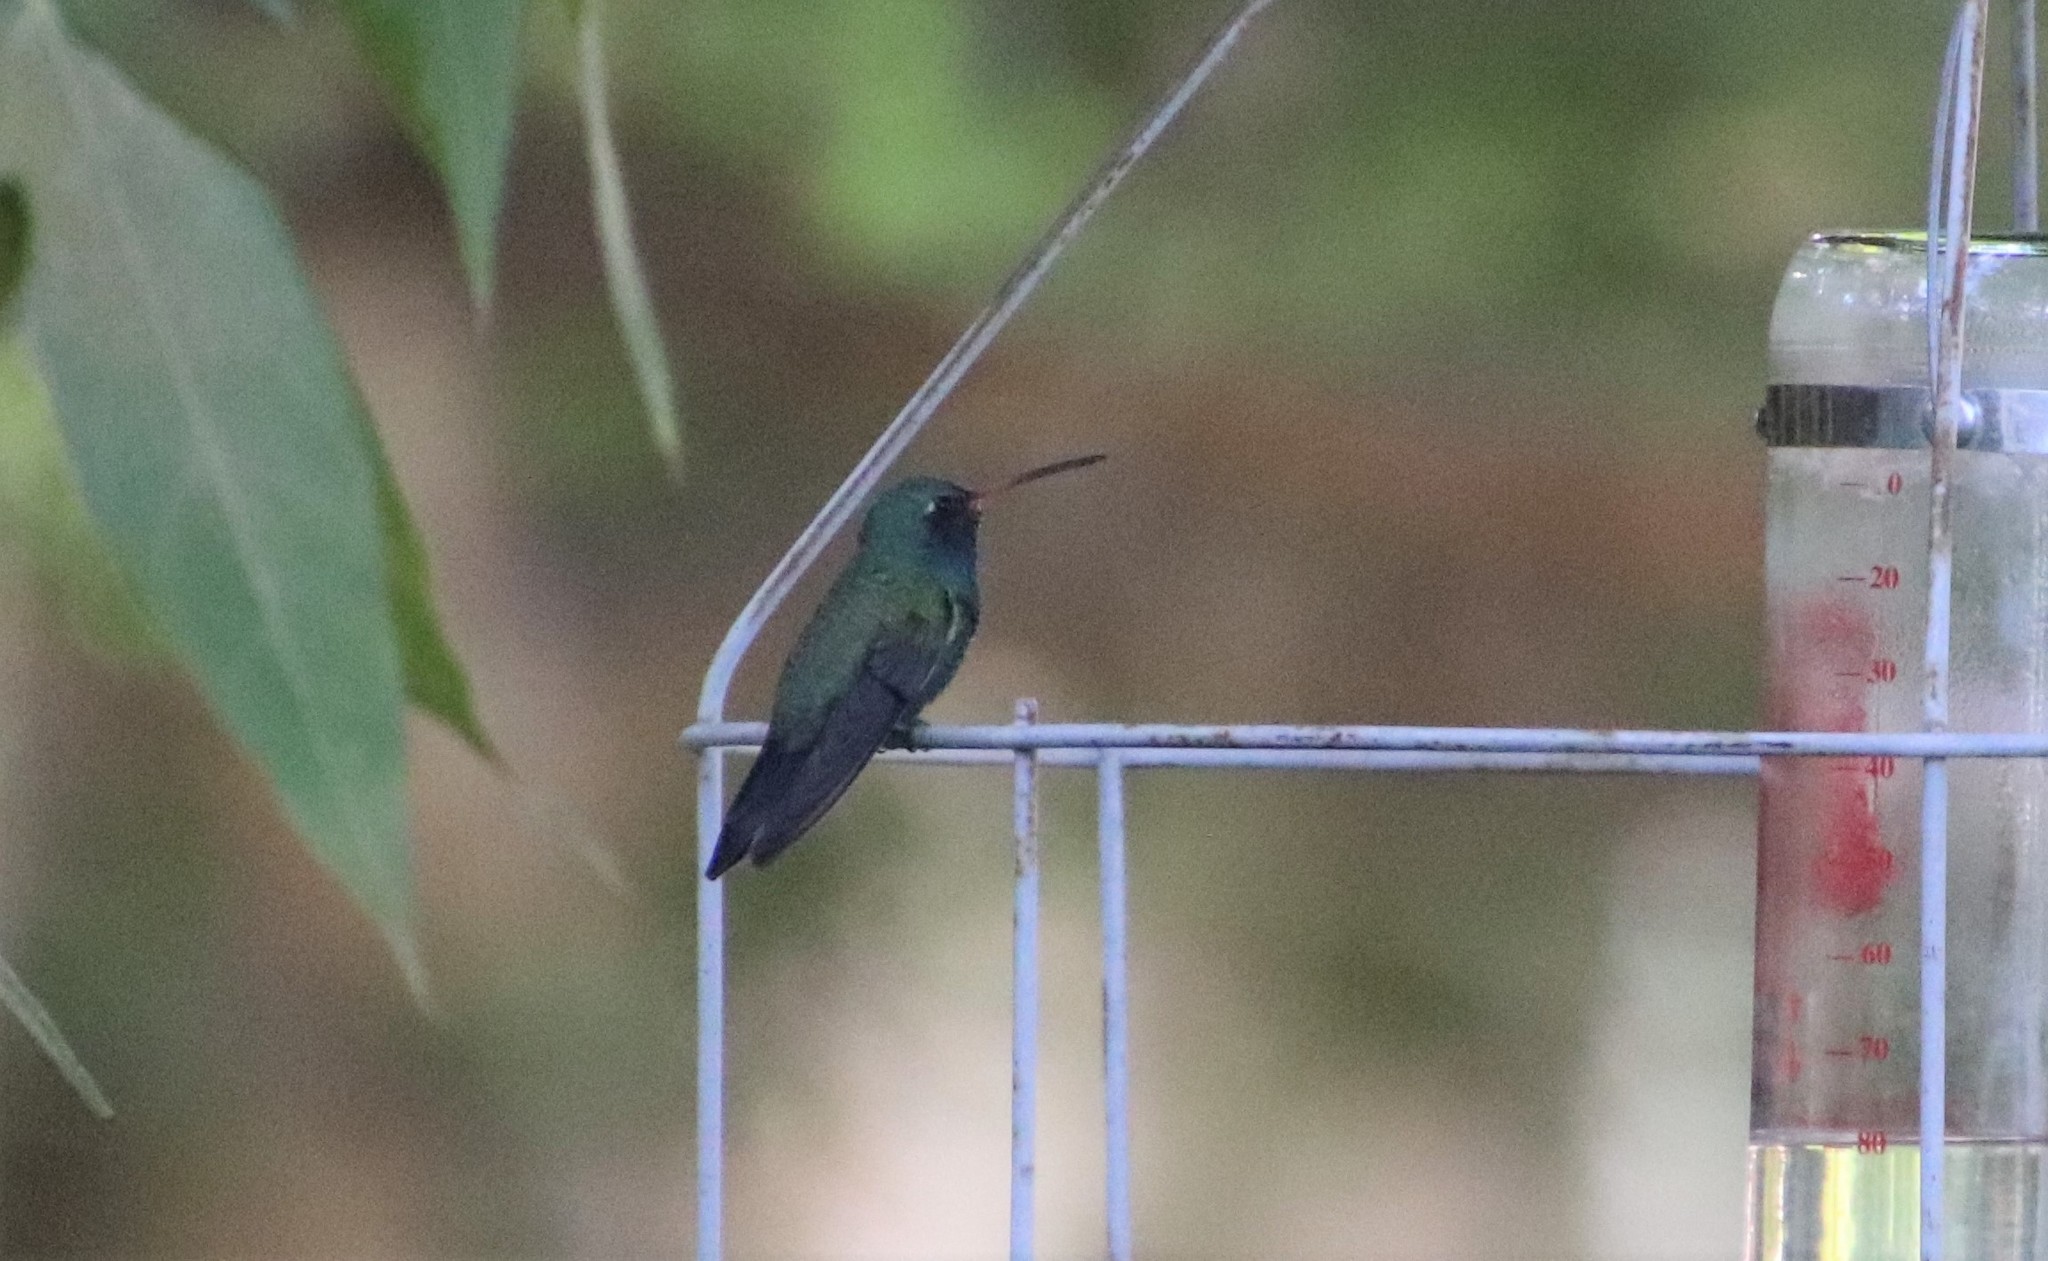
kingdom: Animalia
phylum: Chordata
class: Aves
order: Apodiformes
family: Trochilidae
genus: Cynanthus
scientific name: Cynanthus latirostris
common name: Broad-billed hummingbird
